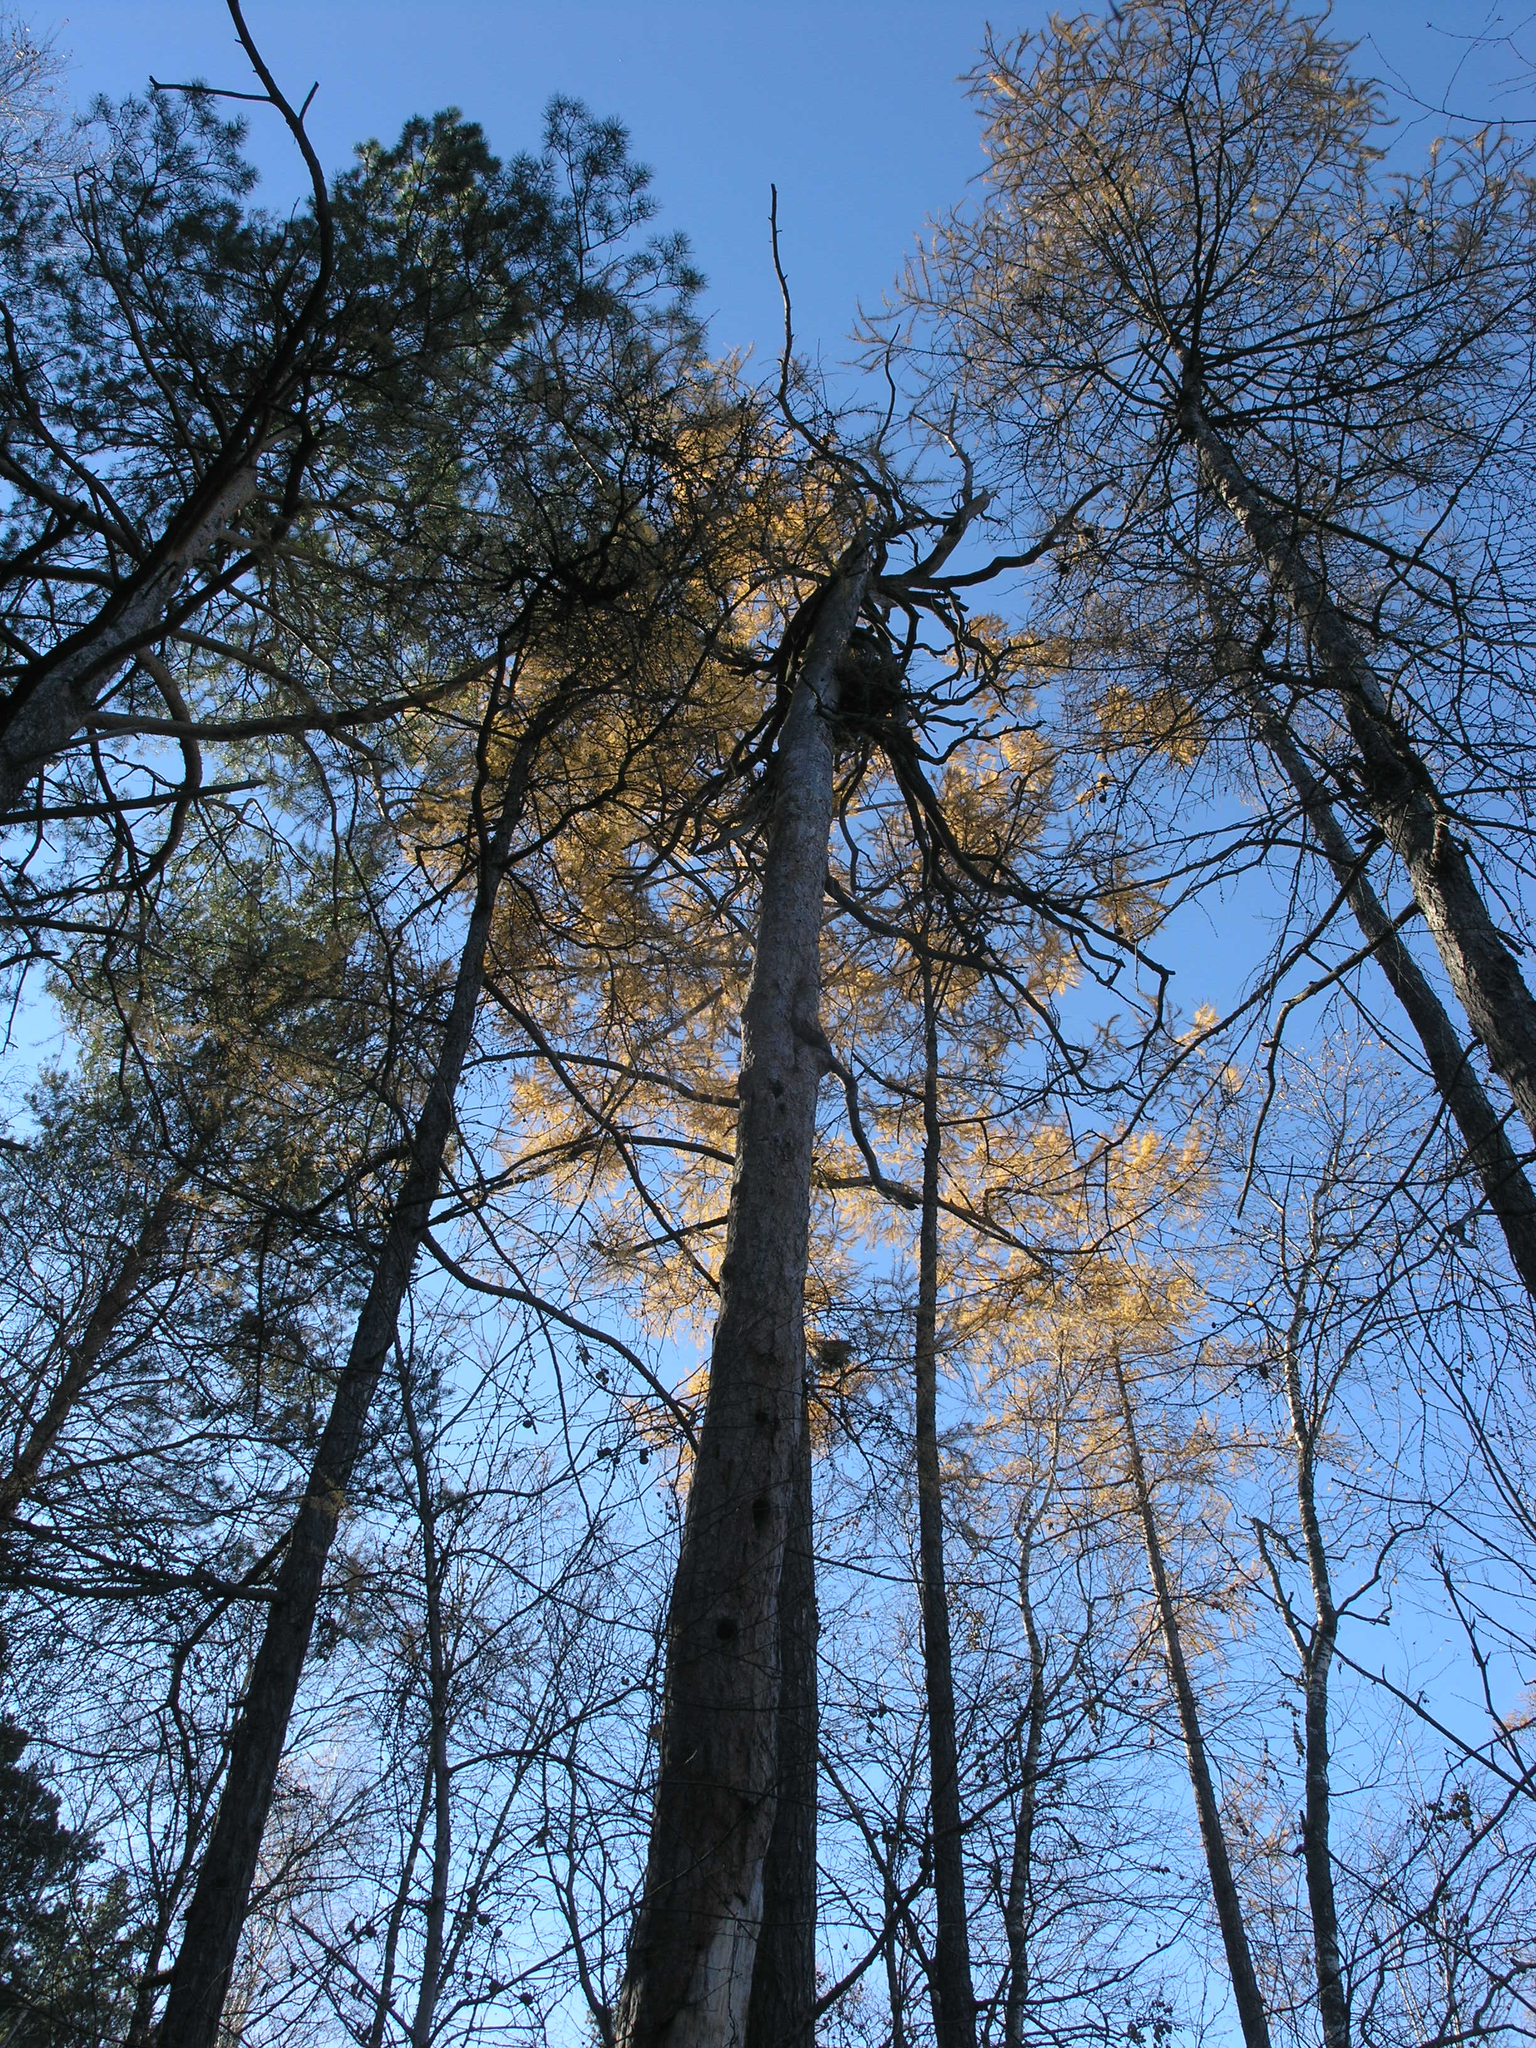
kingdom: Plantae
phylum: Tracheophyta
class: Pinopsida
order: Pinales
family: Pinaceae
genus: Pinus
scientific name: Pinus sylvestris
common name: Scots pine
